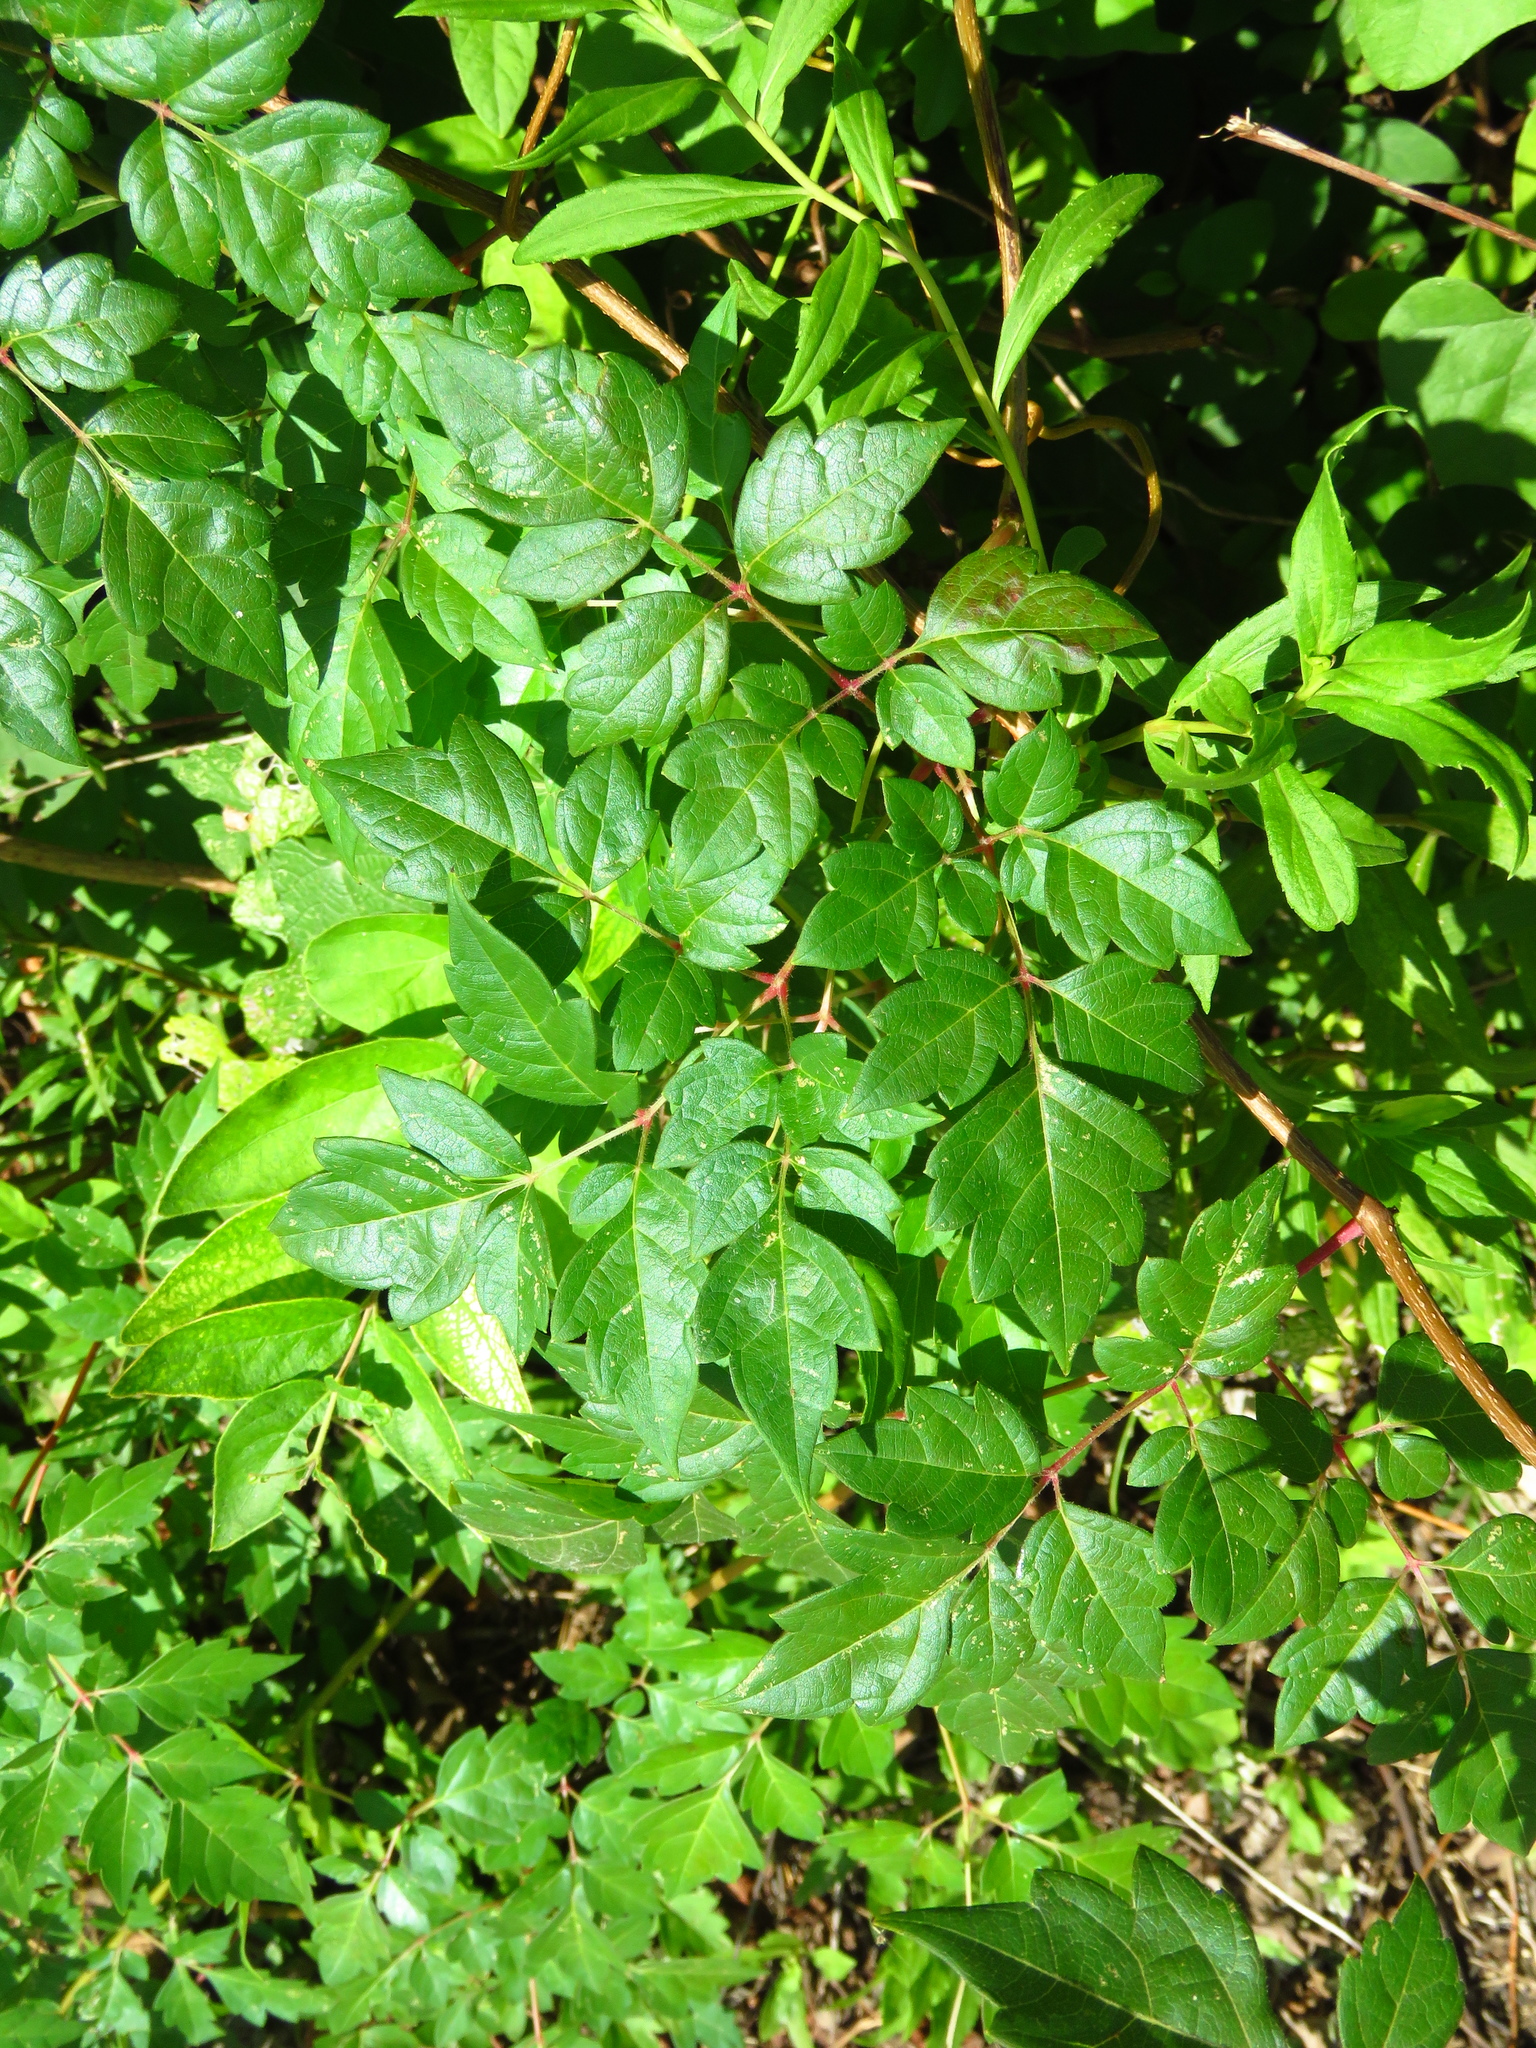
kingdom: Plantae
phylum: Tracheophyta
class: Magnoliopsida
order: Vitales
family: Vitaceae
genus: Nekemias
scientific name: Nekemias arborea
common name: Peppervine
